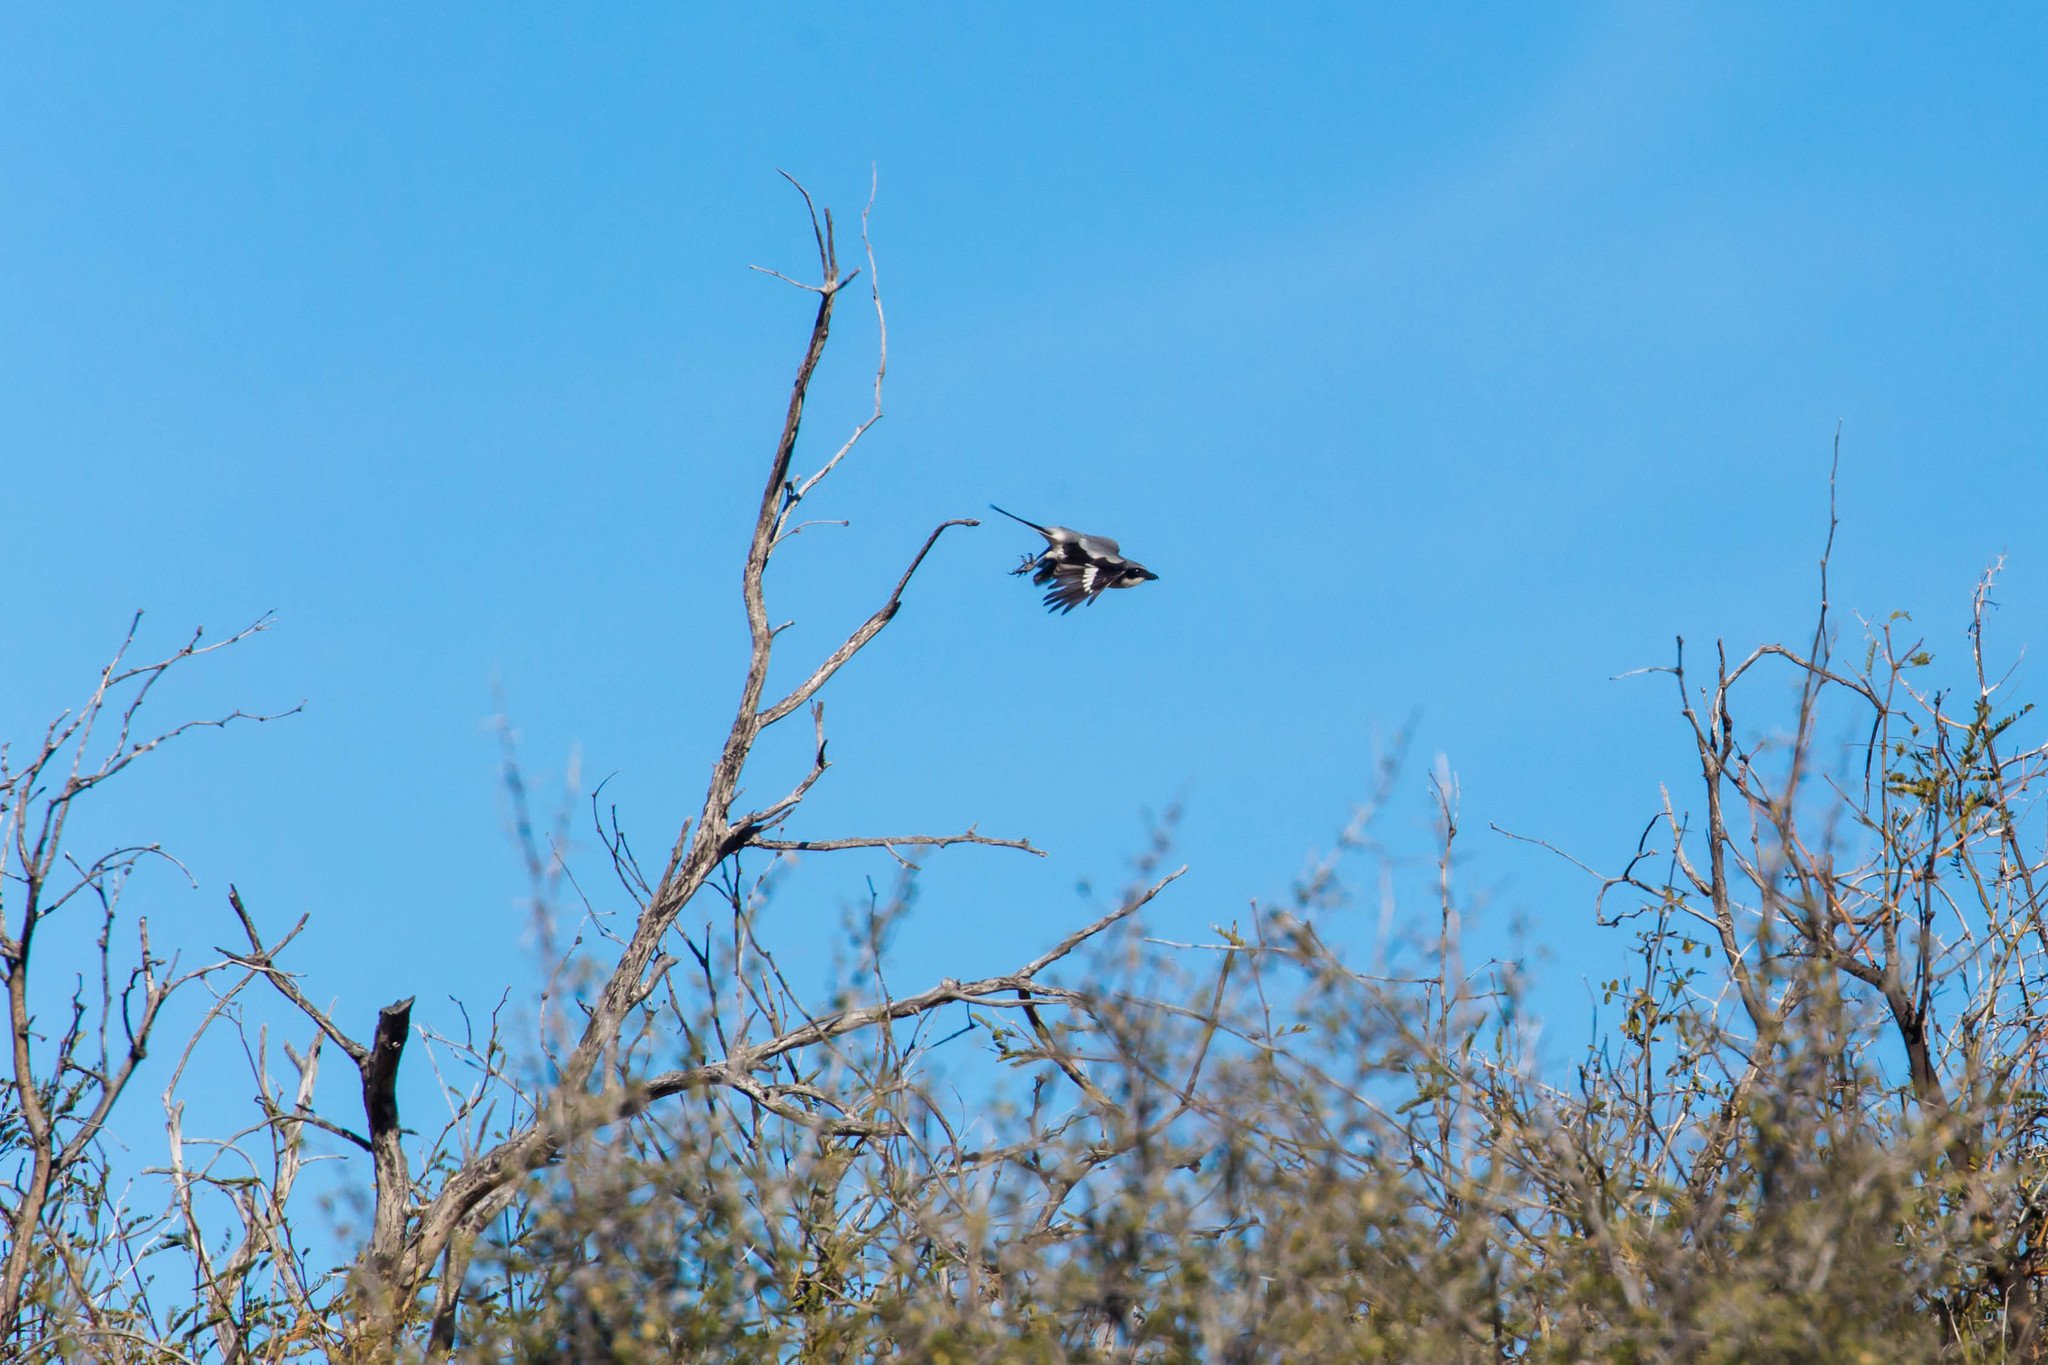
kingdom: Animalia
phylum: Chordata
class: Aves
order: Passeriformes
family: Laniidae
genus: Lanius
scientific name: Lanius ludovicianus
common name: Loggerhead shrike
